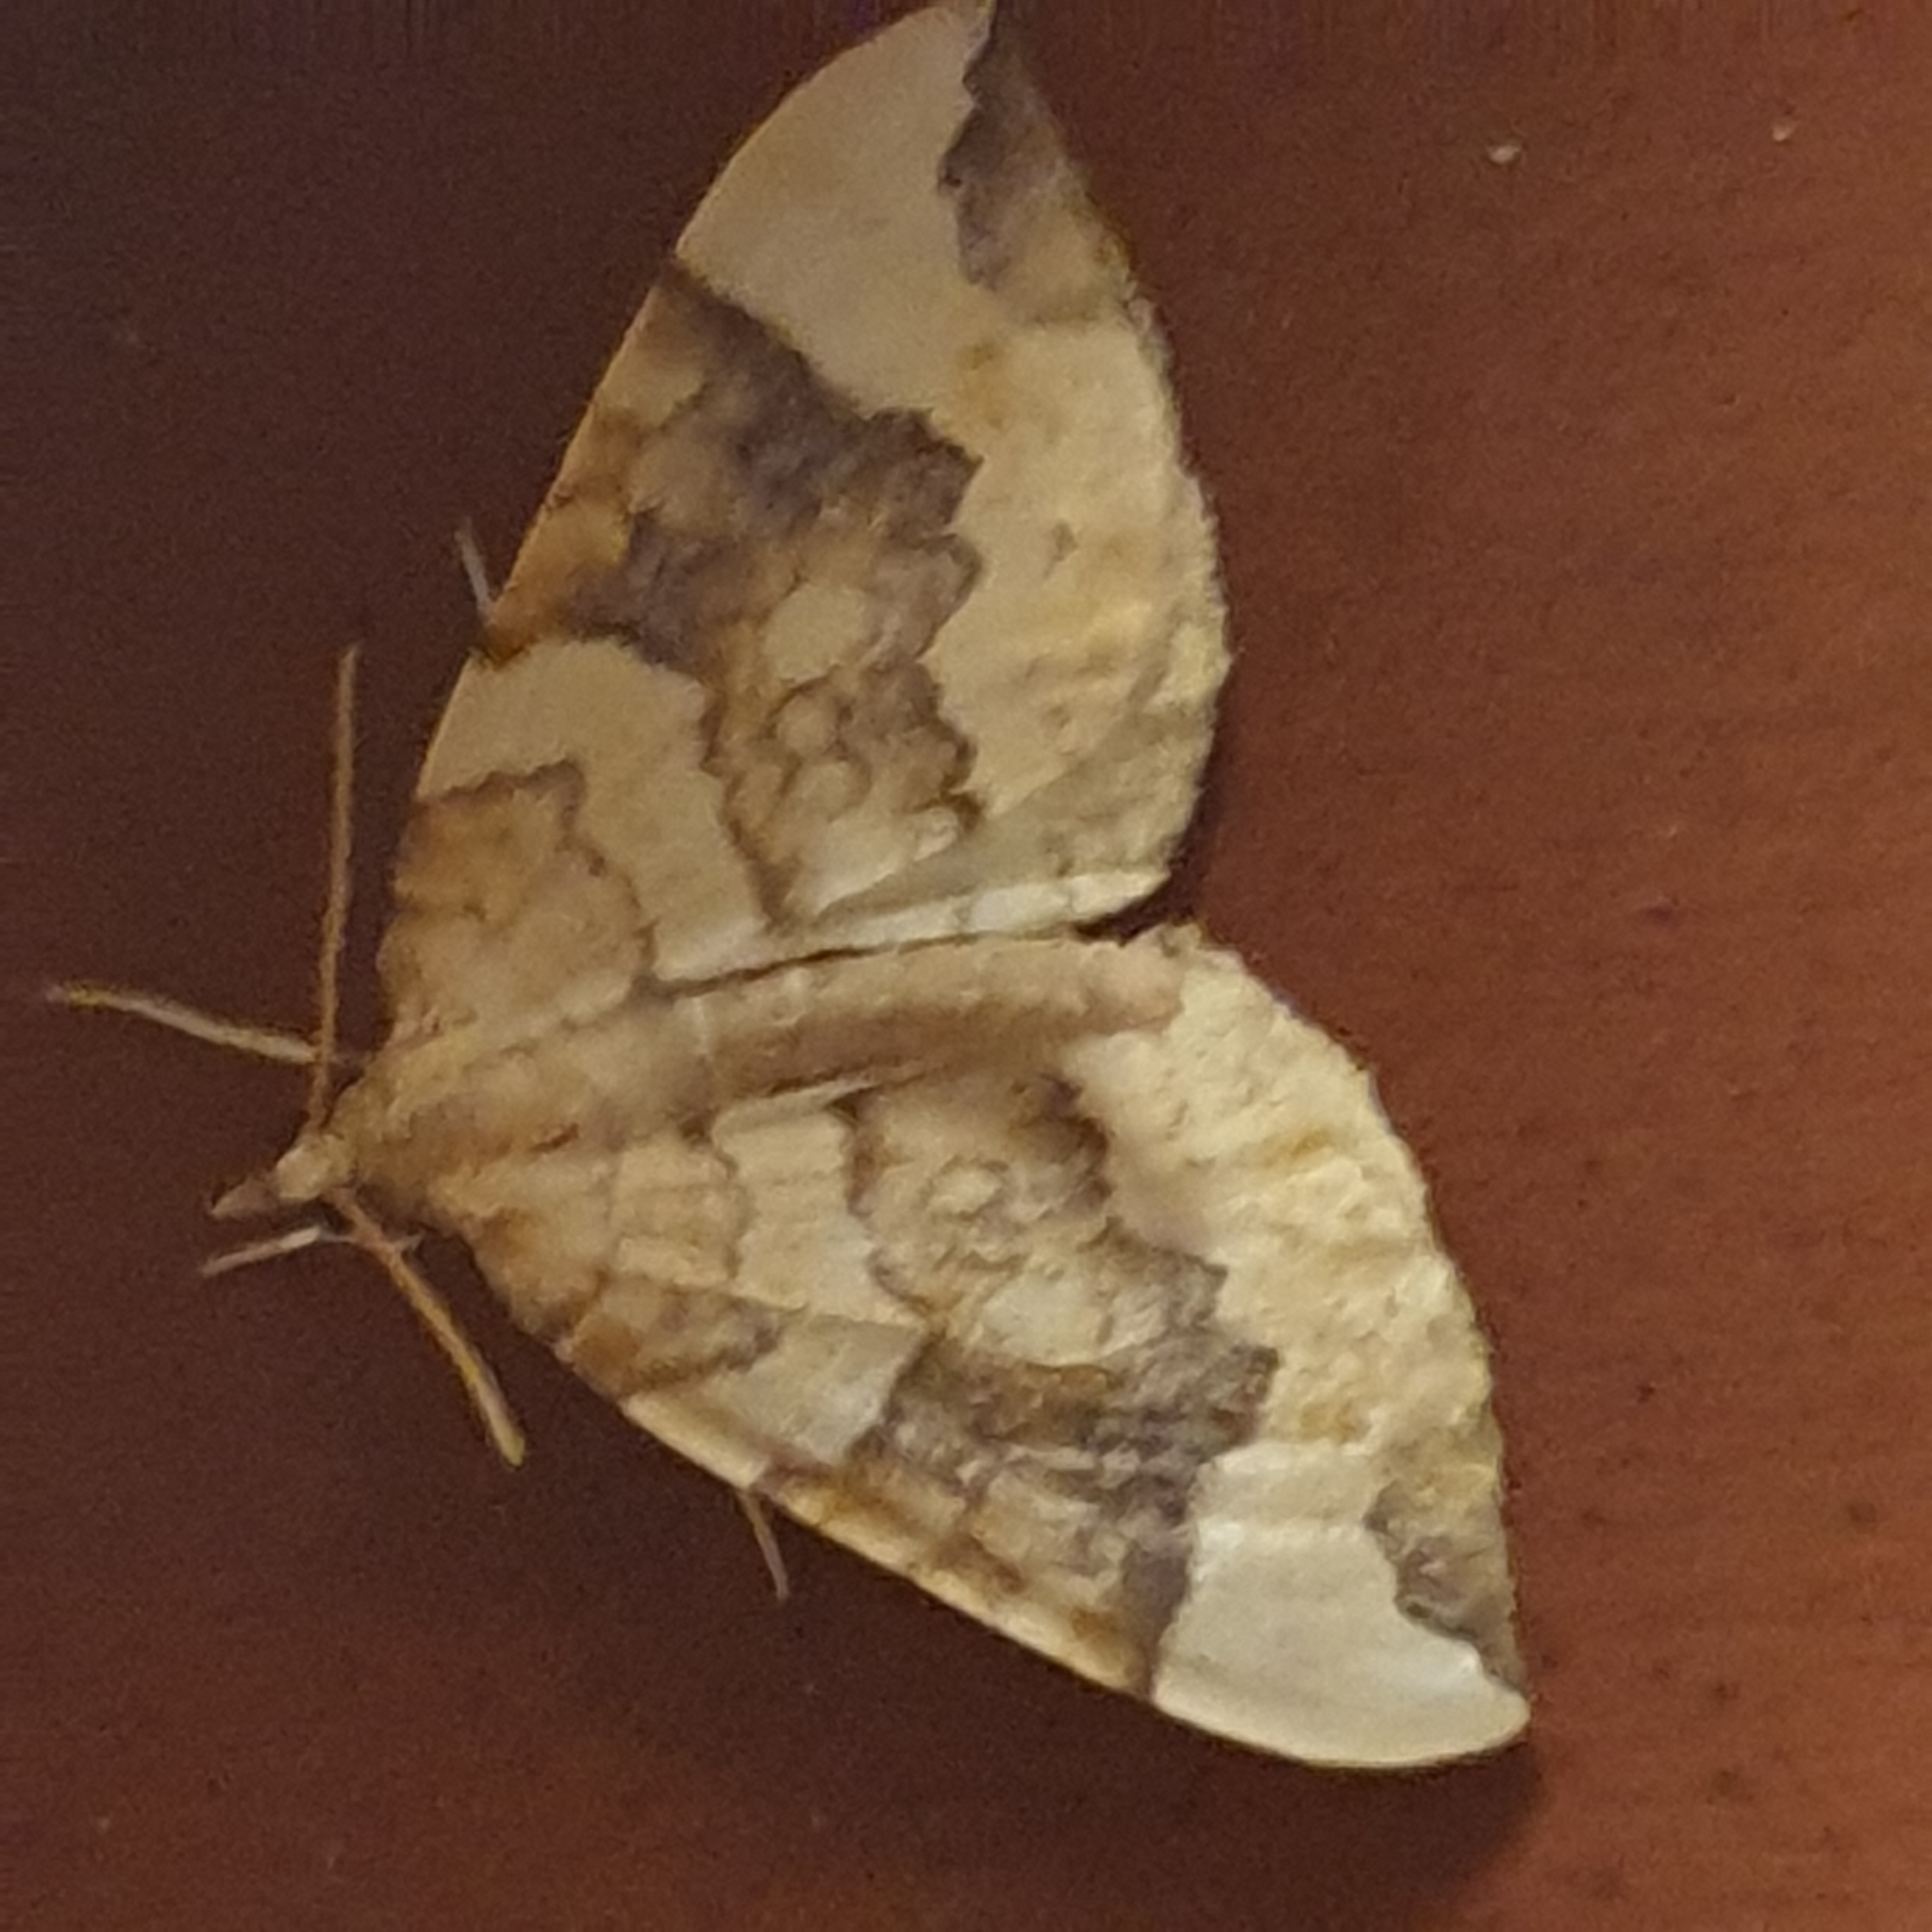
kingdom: Animalia
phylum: Arthropoda
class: Insecta
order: Lepidoptera
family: Geometridae
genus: Eulithis
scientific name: Eulithis populata
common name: Northern spinach
